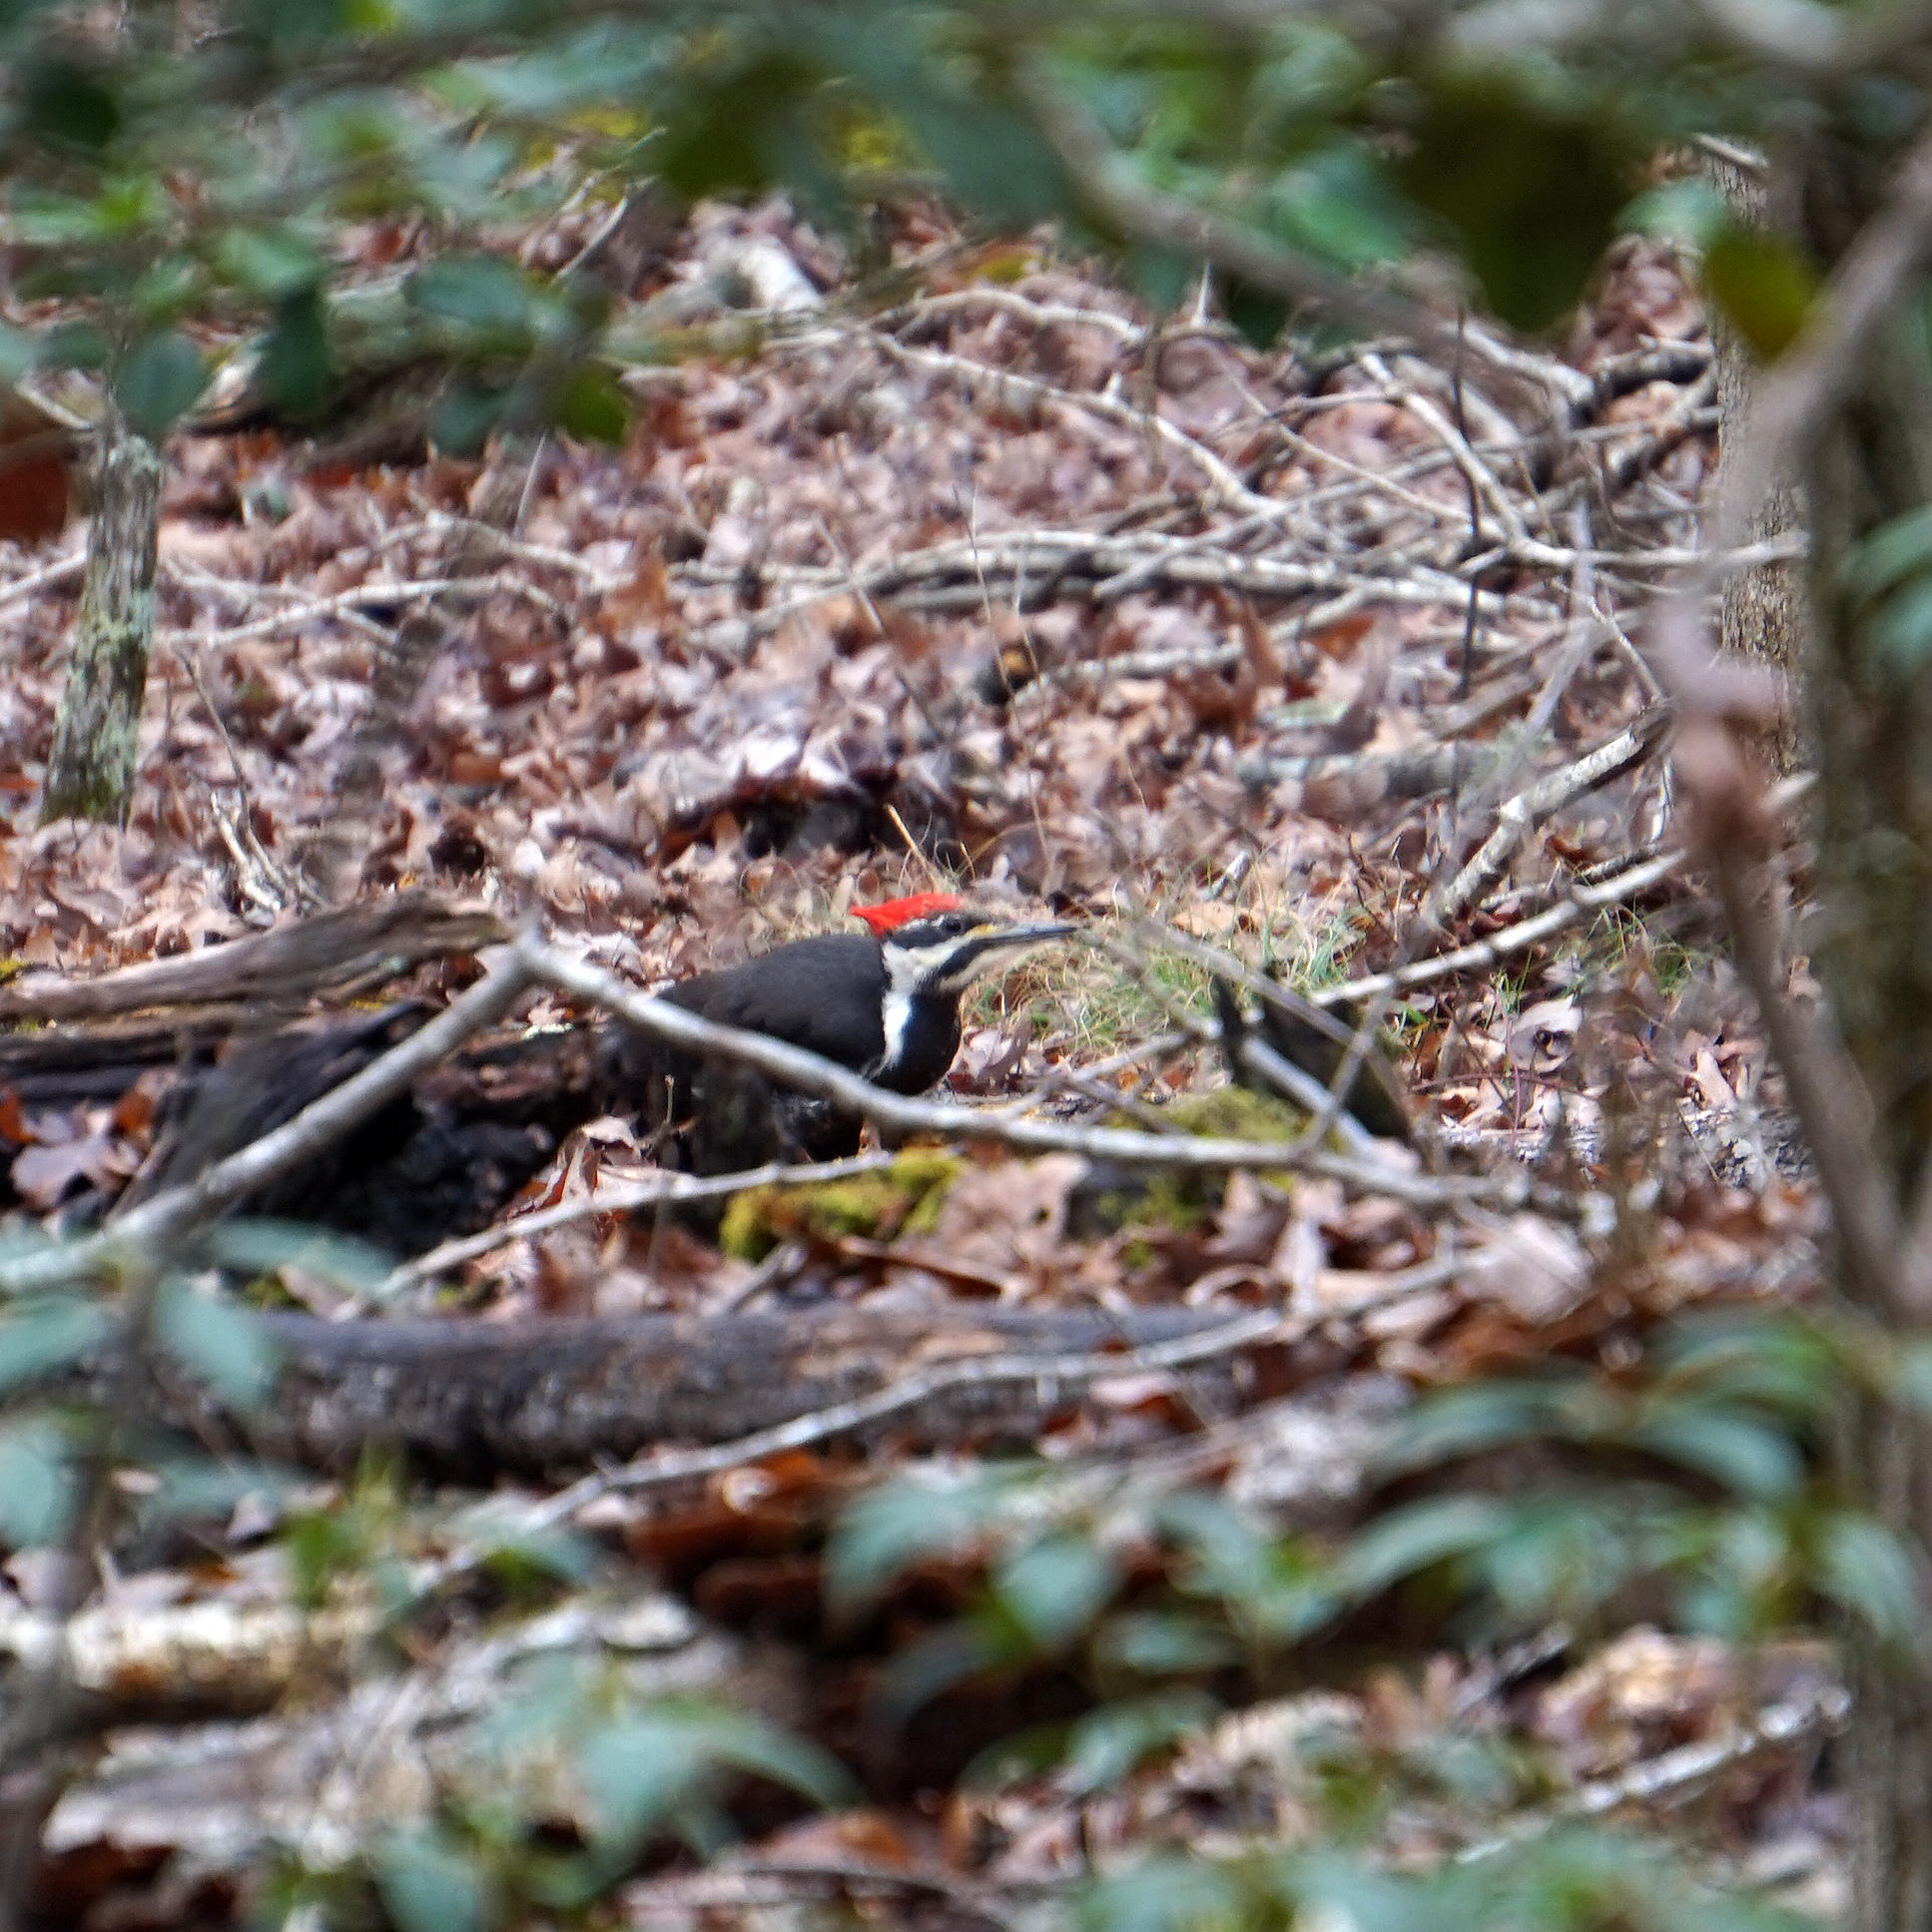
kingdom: Animalia
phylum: Chordata
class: Aves
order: Piciformes
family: Picidae
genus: Dryocopus
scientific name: Dryocopus pileatus
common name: Pileated woodpecker
